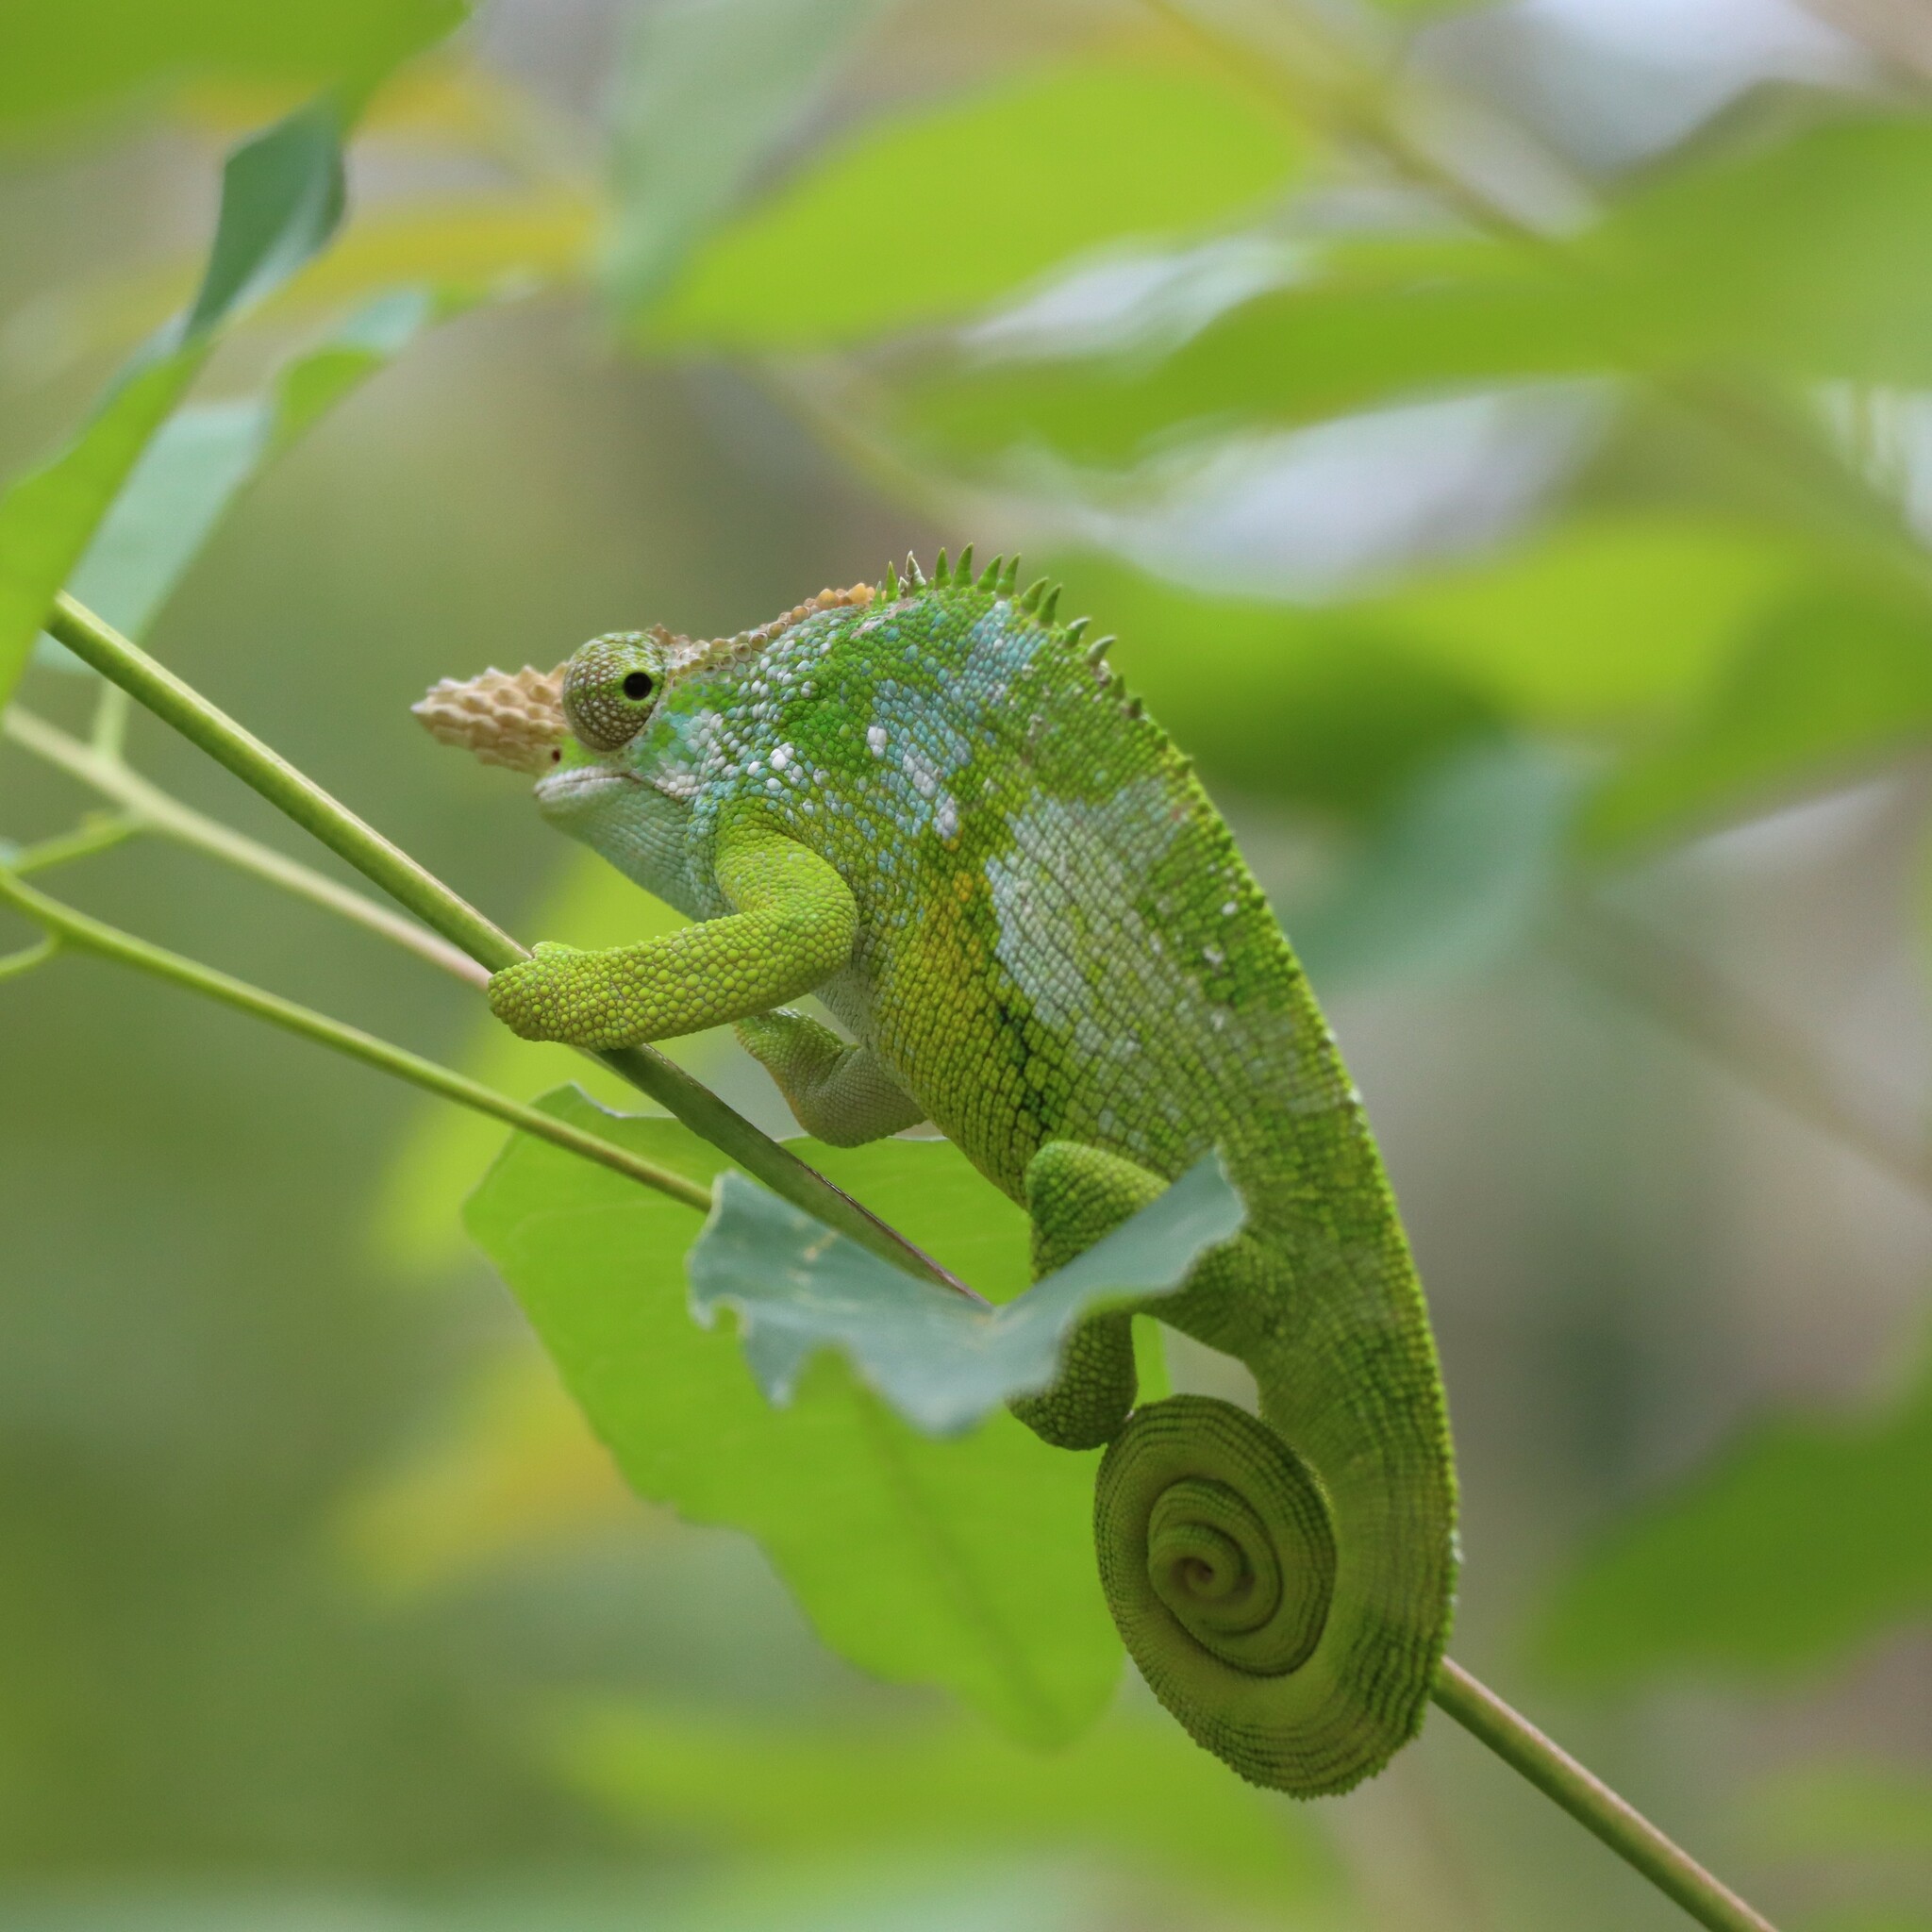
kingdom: Animalia
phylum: Chordata
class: Squamata
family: Chamaeleonidae
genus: Kinyongia
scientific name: Kinyongia multituberculata
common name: West usambara blade-horned chameleon
